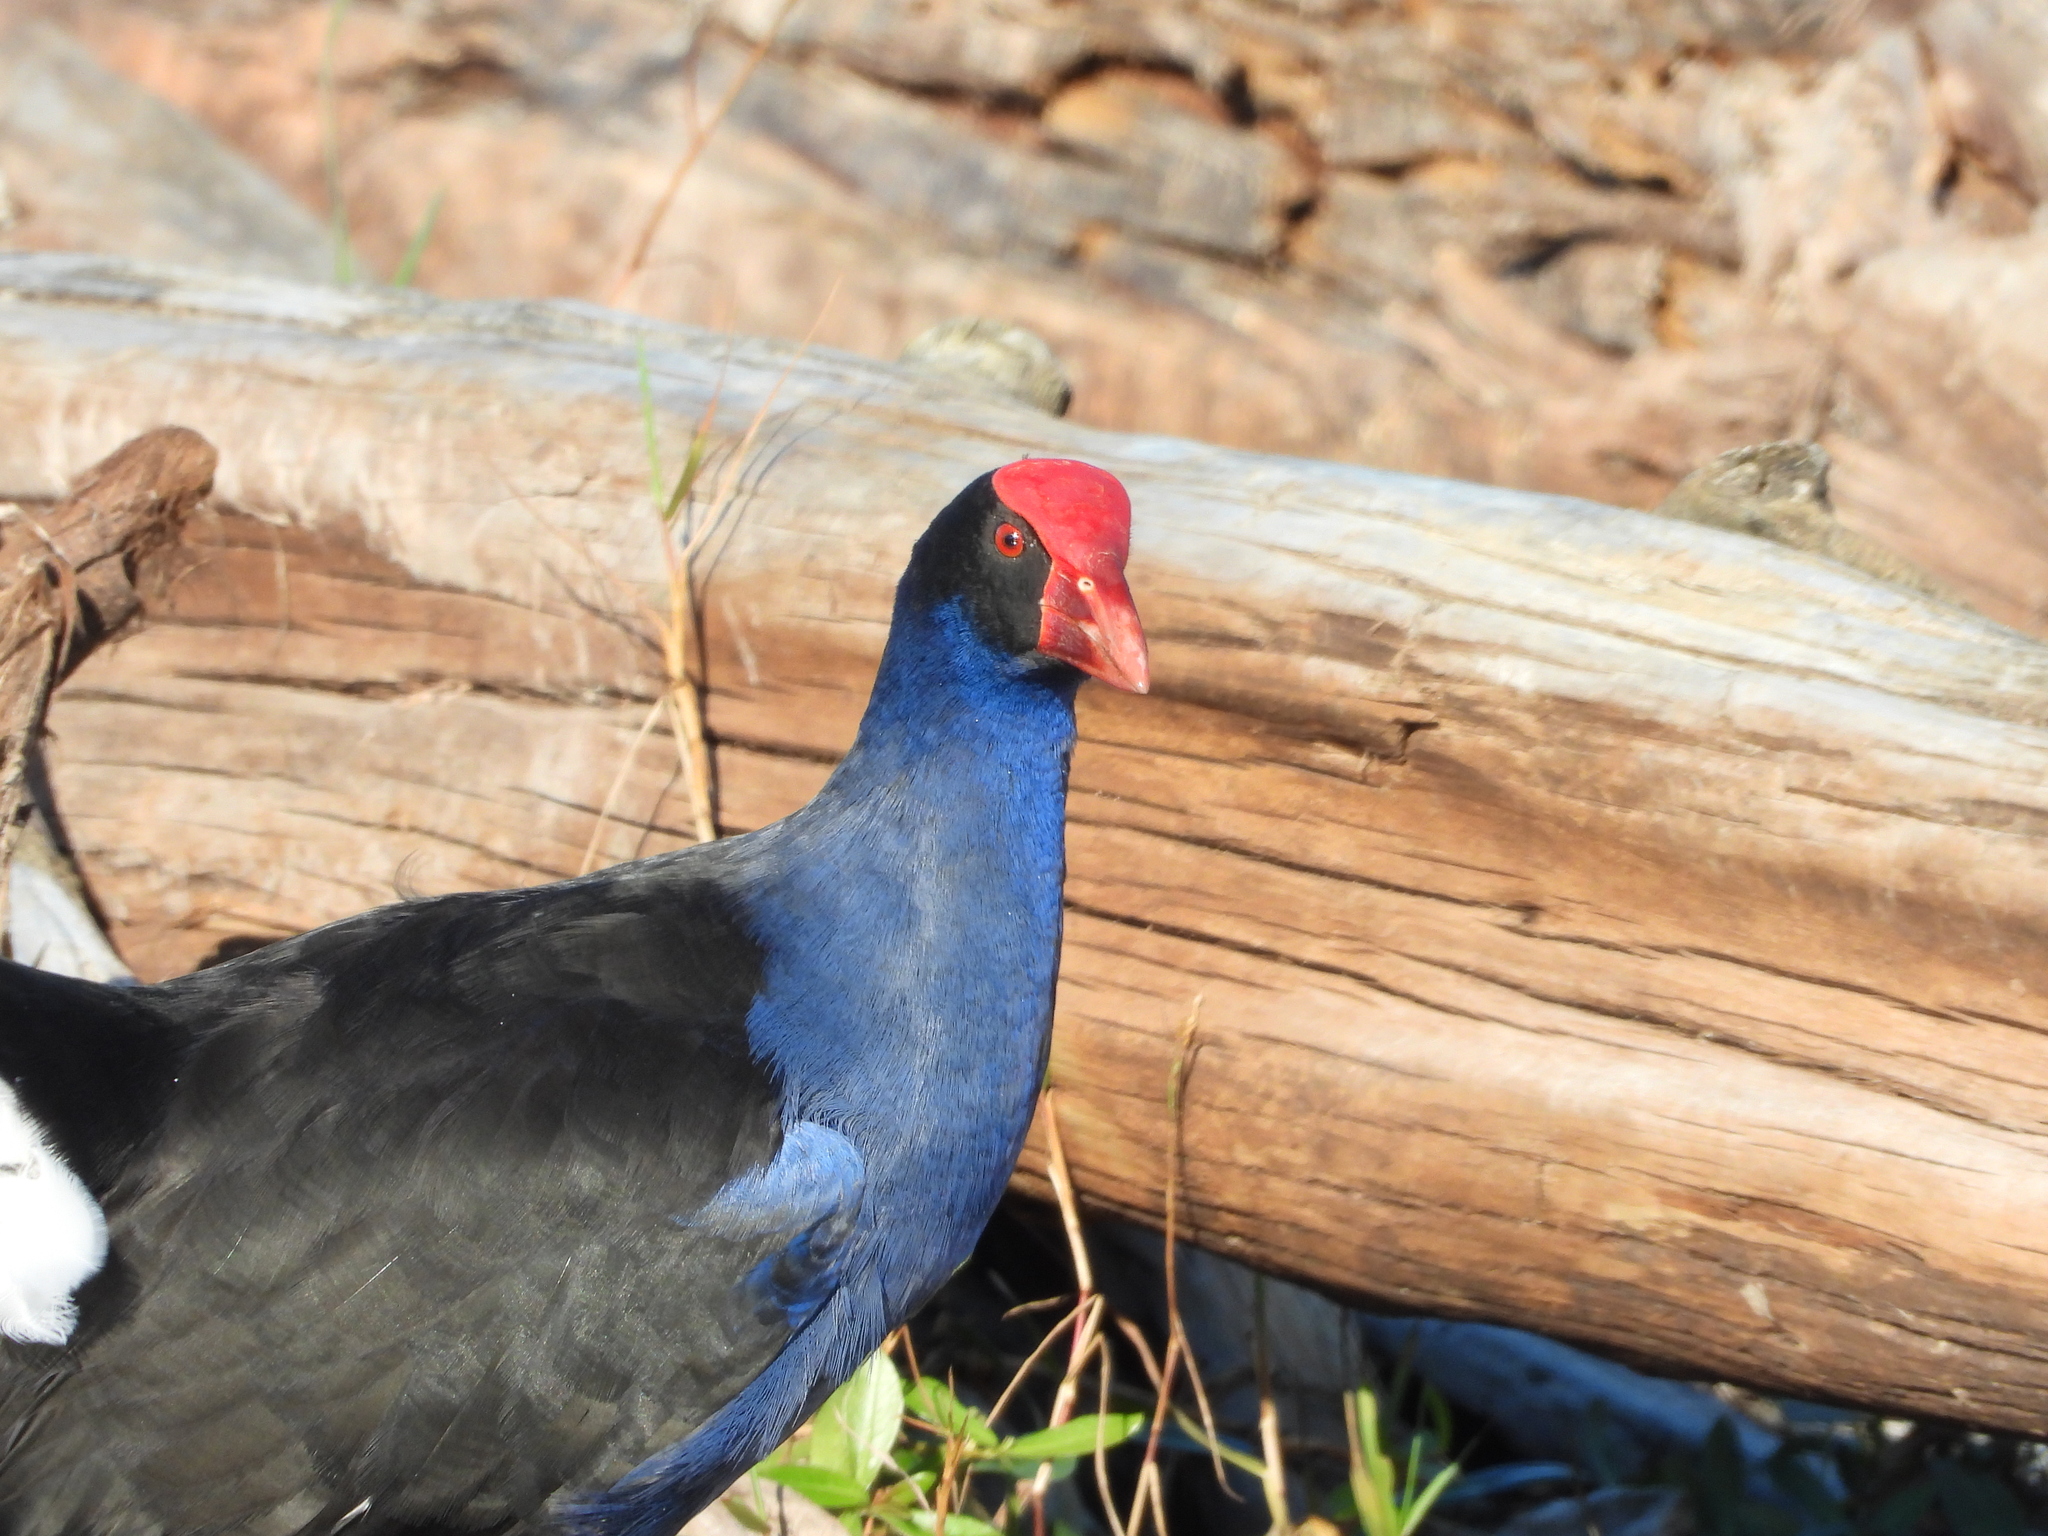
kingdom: Animalia
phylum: Chordata
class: Aves
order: Gruiformes
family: Rallidae
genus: Porphyrio
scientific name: Porphyrio melanotus
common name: Australasian swamphen
